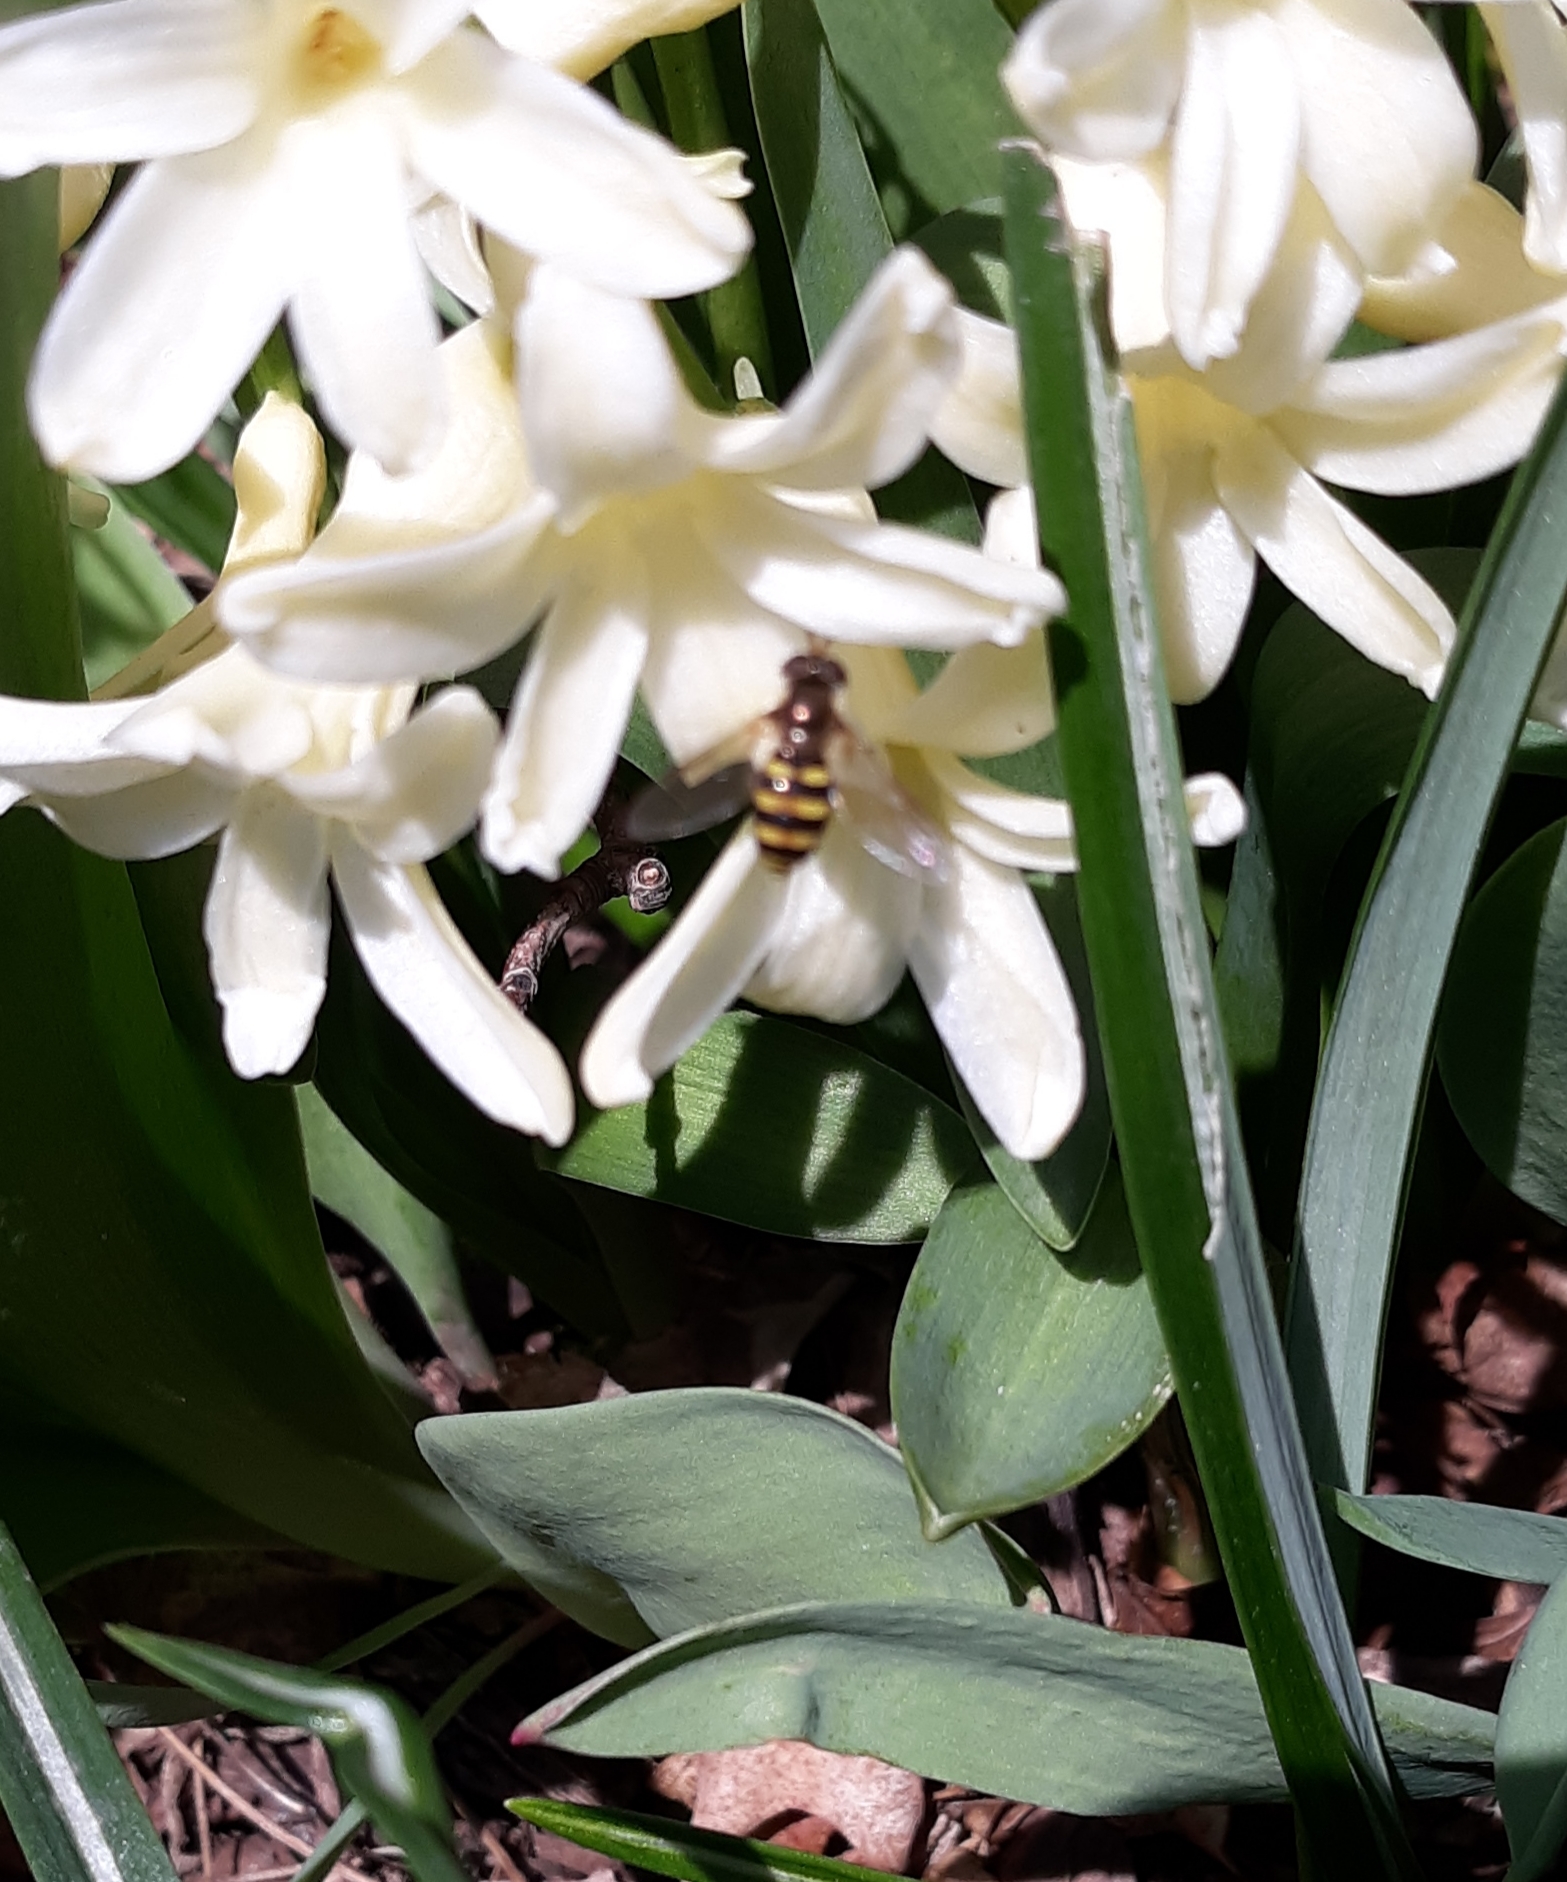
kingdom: Animalia
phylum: Arthropoda
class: Insecta
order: Diptera
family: Syrphidae
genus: Eupeodes
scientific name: Eupeodes
